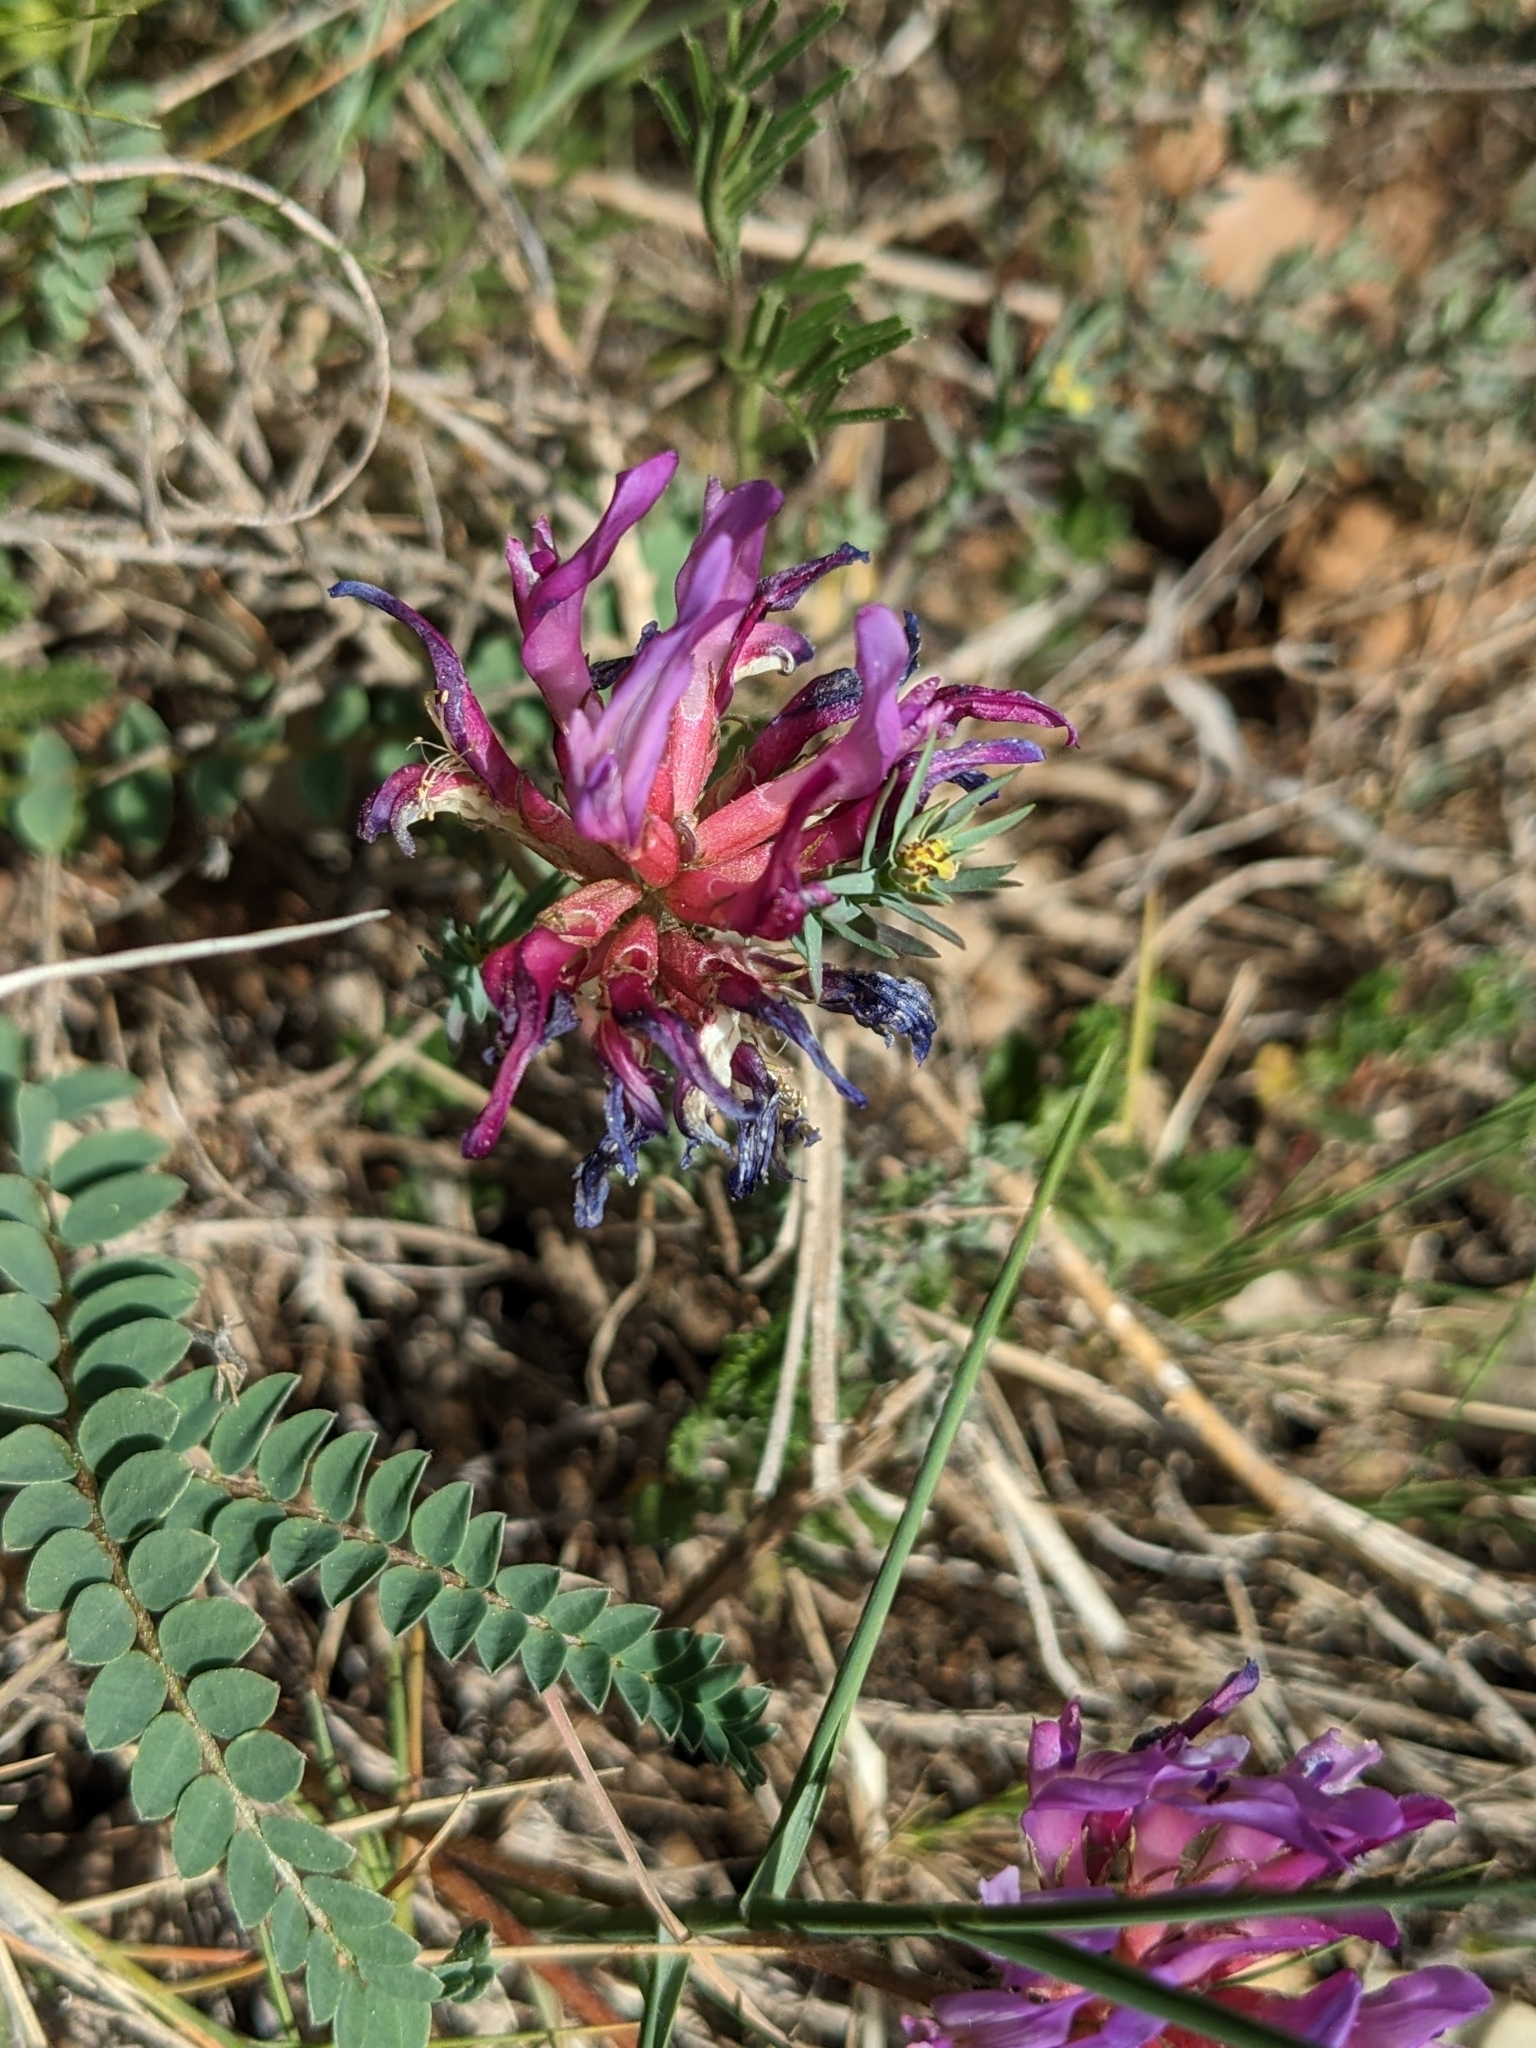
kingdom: Plantae
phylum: Tracheophyta
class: Magnoliopsida
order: Fabales
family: Fabaceae
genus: Astragalus
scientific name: Astragalus monspessulanus
